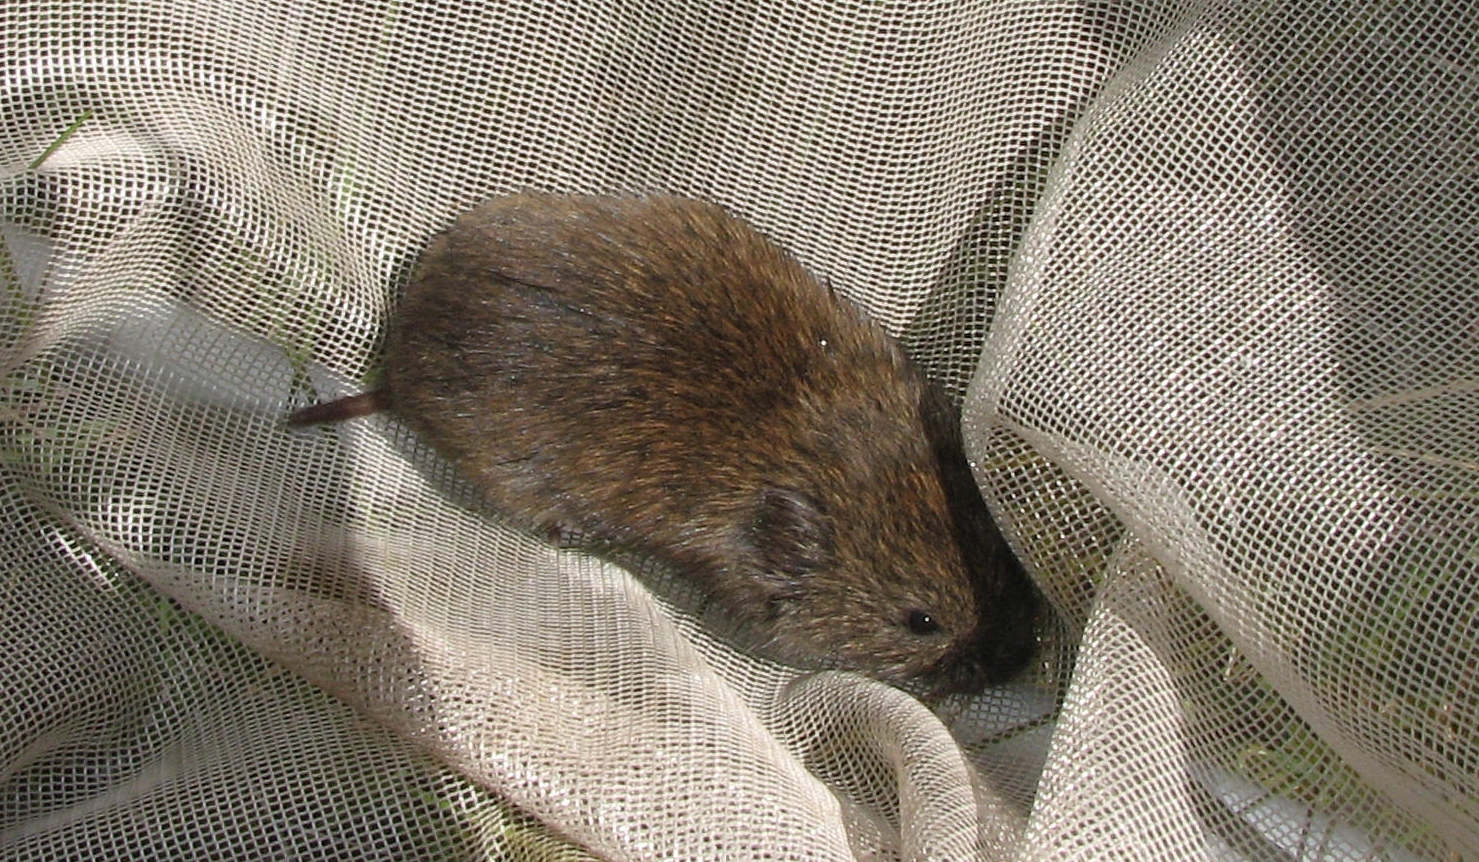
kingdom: Animalia
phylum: Chordata
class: Mammalia
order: Rodentia
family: Cricetidae
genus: Synaptomys
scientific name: Synaptomys cooperi
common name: Southern bog lemming
